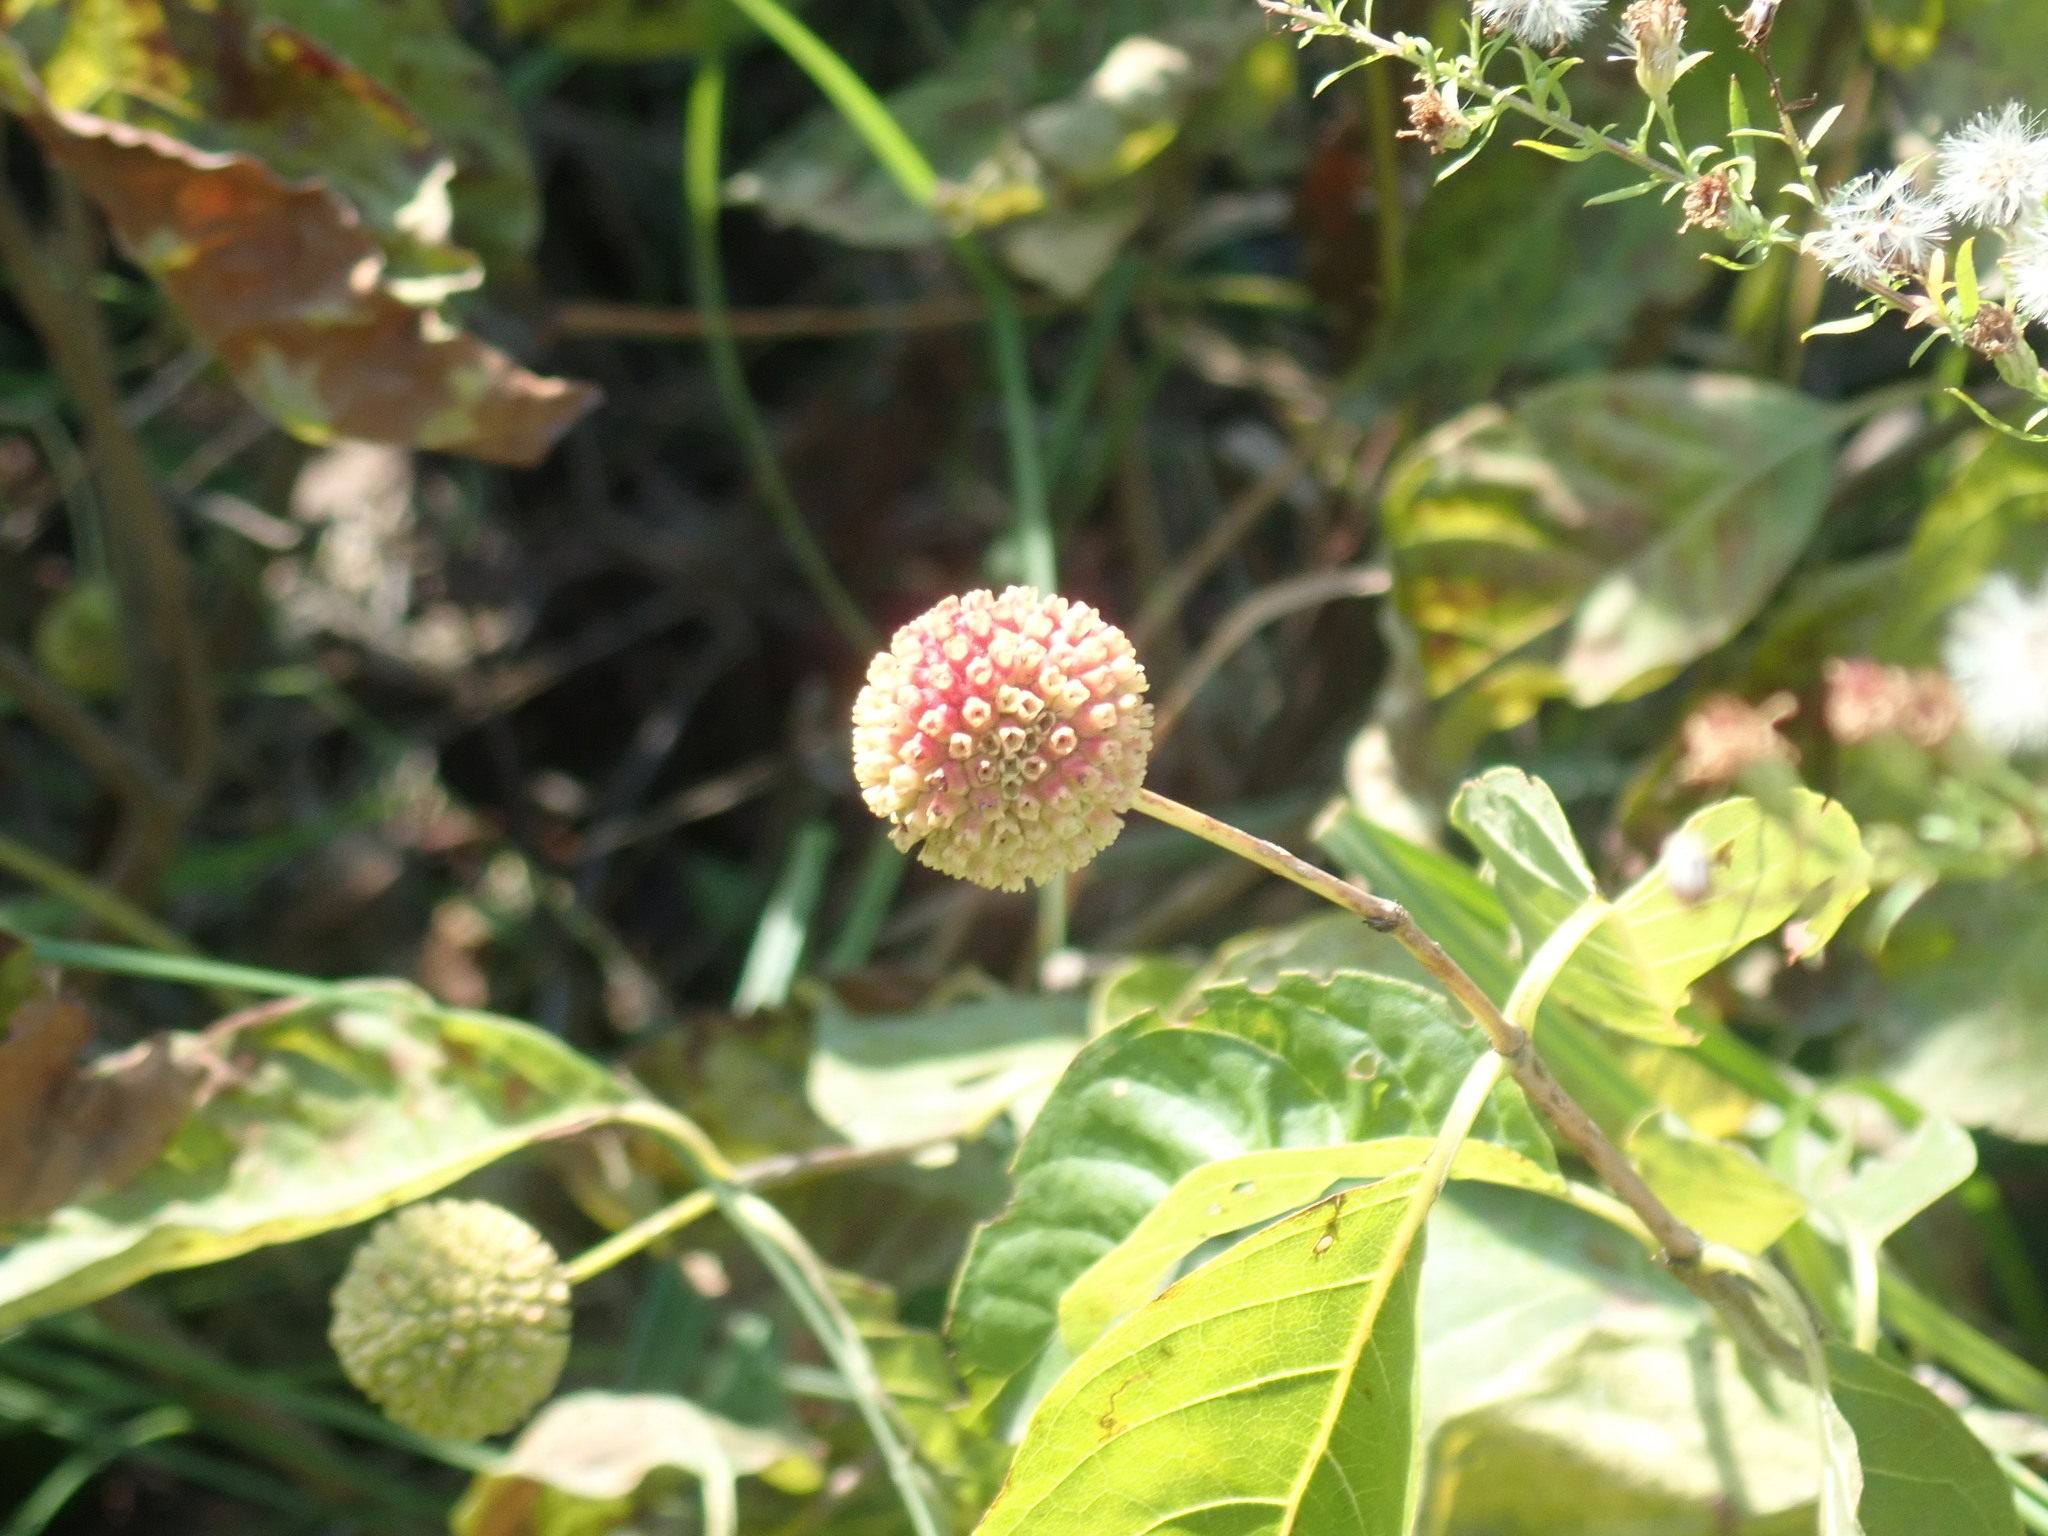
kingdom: Plantae
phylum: Tracheophyta
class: Magnoliopsida
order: Gentianales
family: Rubiaceae
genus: Cephalanthus
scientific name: Cephalanthus occidentalis
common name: Button-willow
